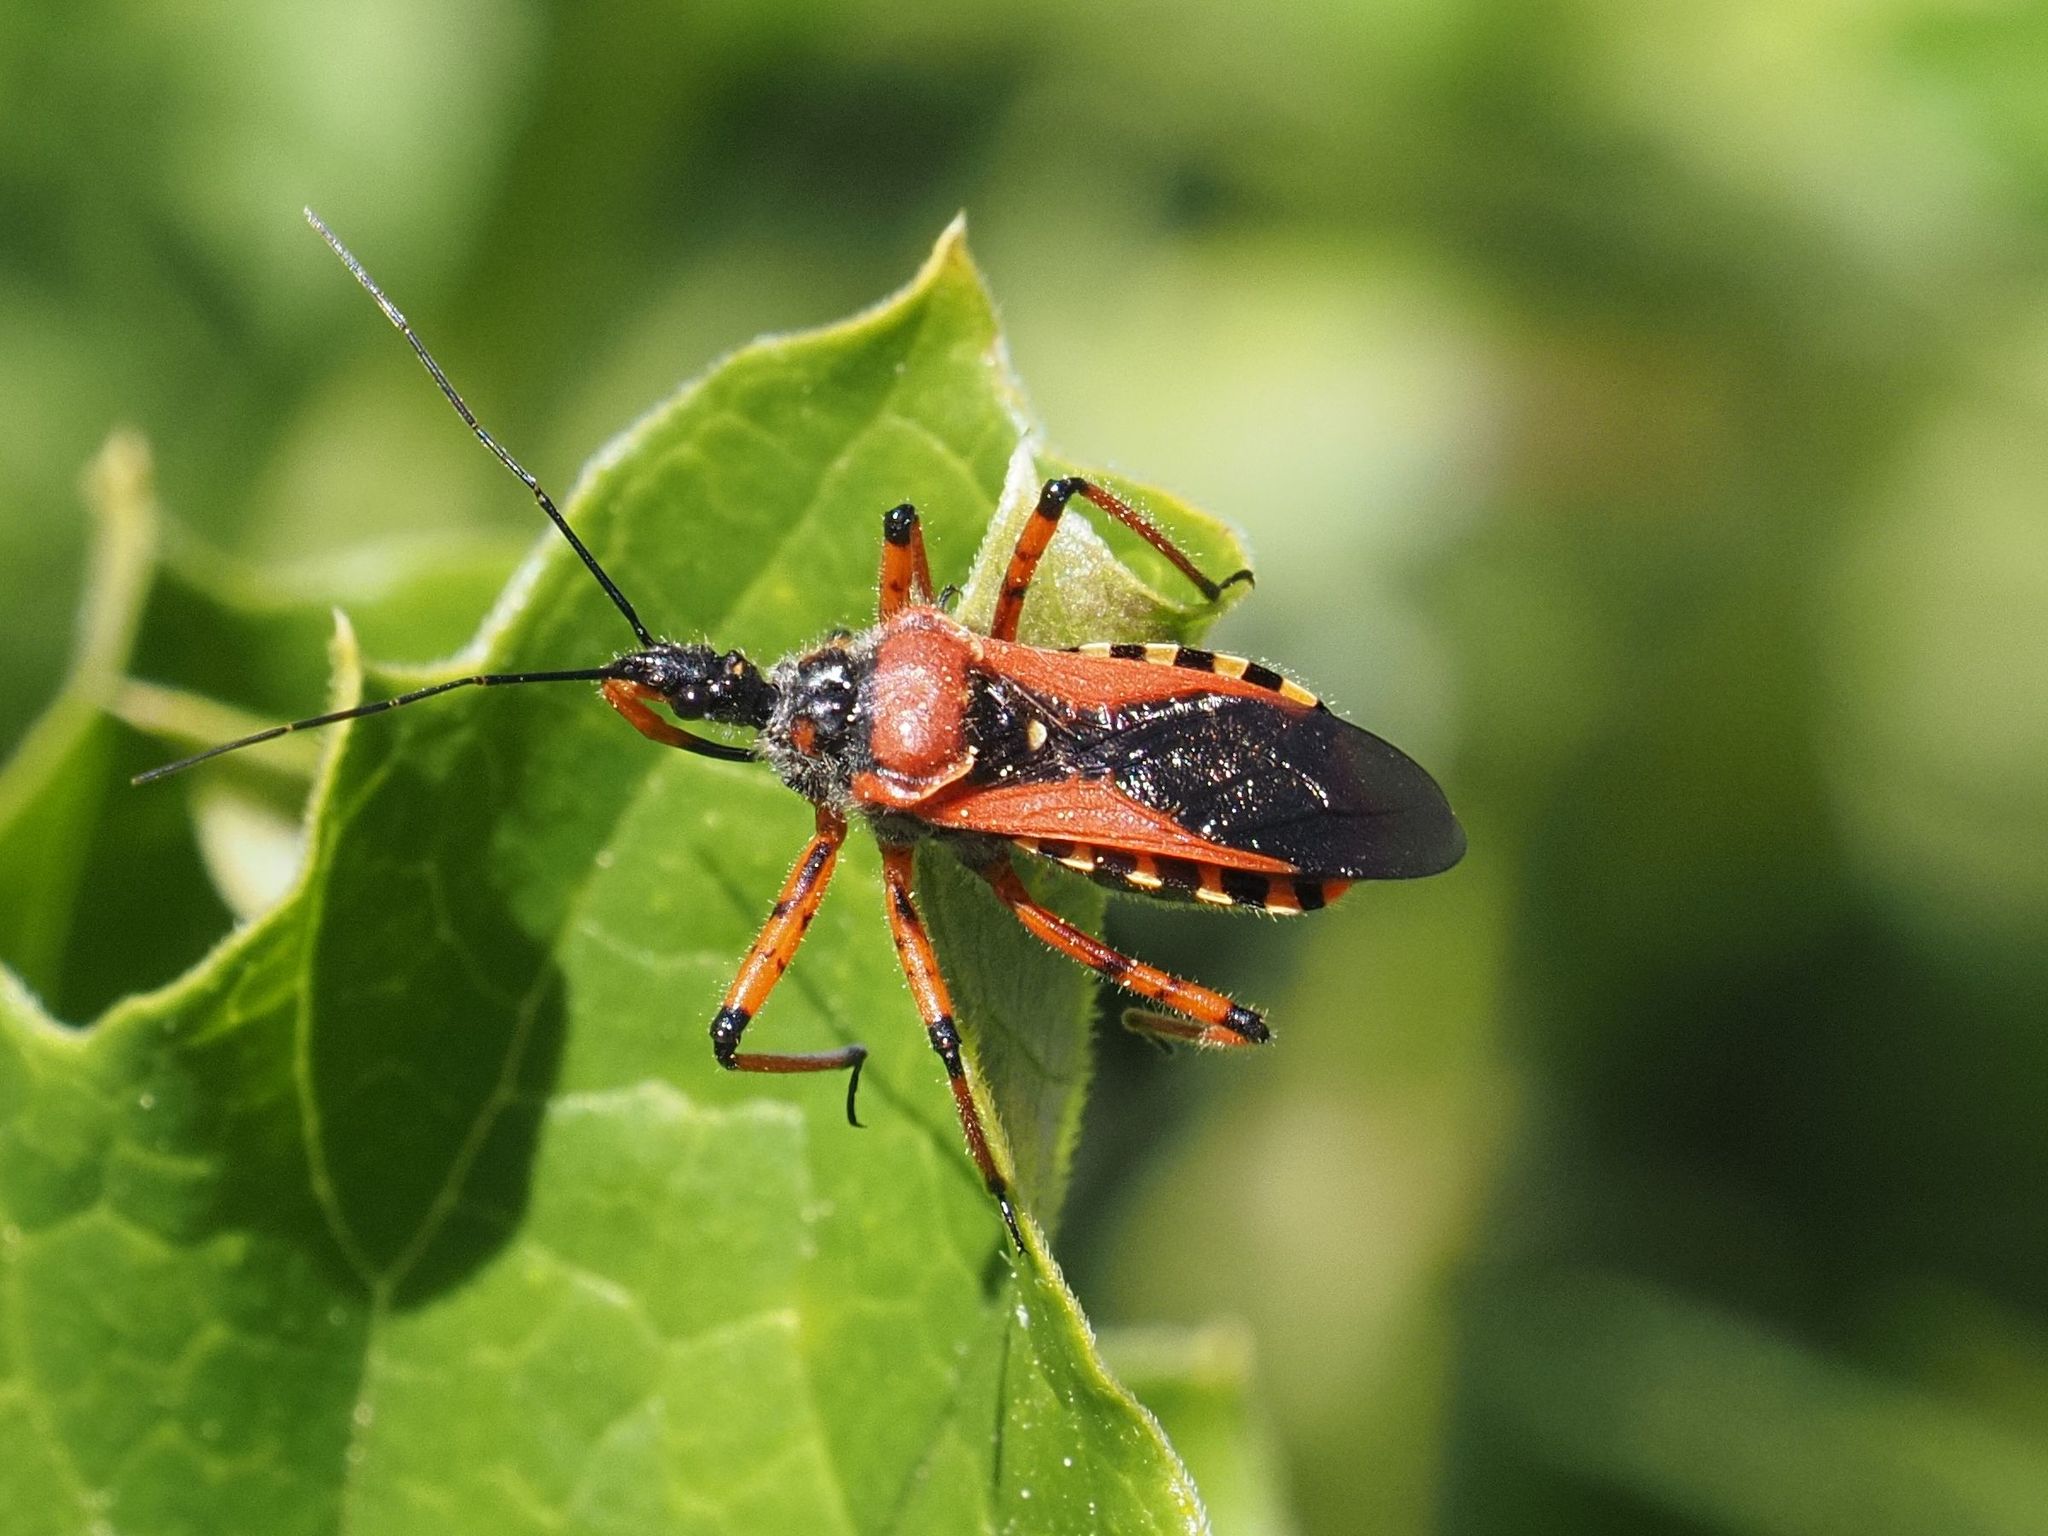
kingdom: Animalia
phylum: Arthropoda
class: Insecta
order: Hemiptera
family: Reduviidae
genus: Rhynocoris
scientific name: Rhynocoris iracundus
